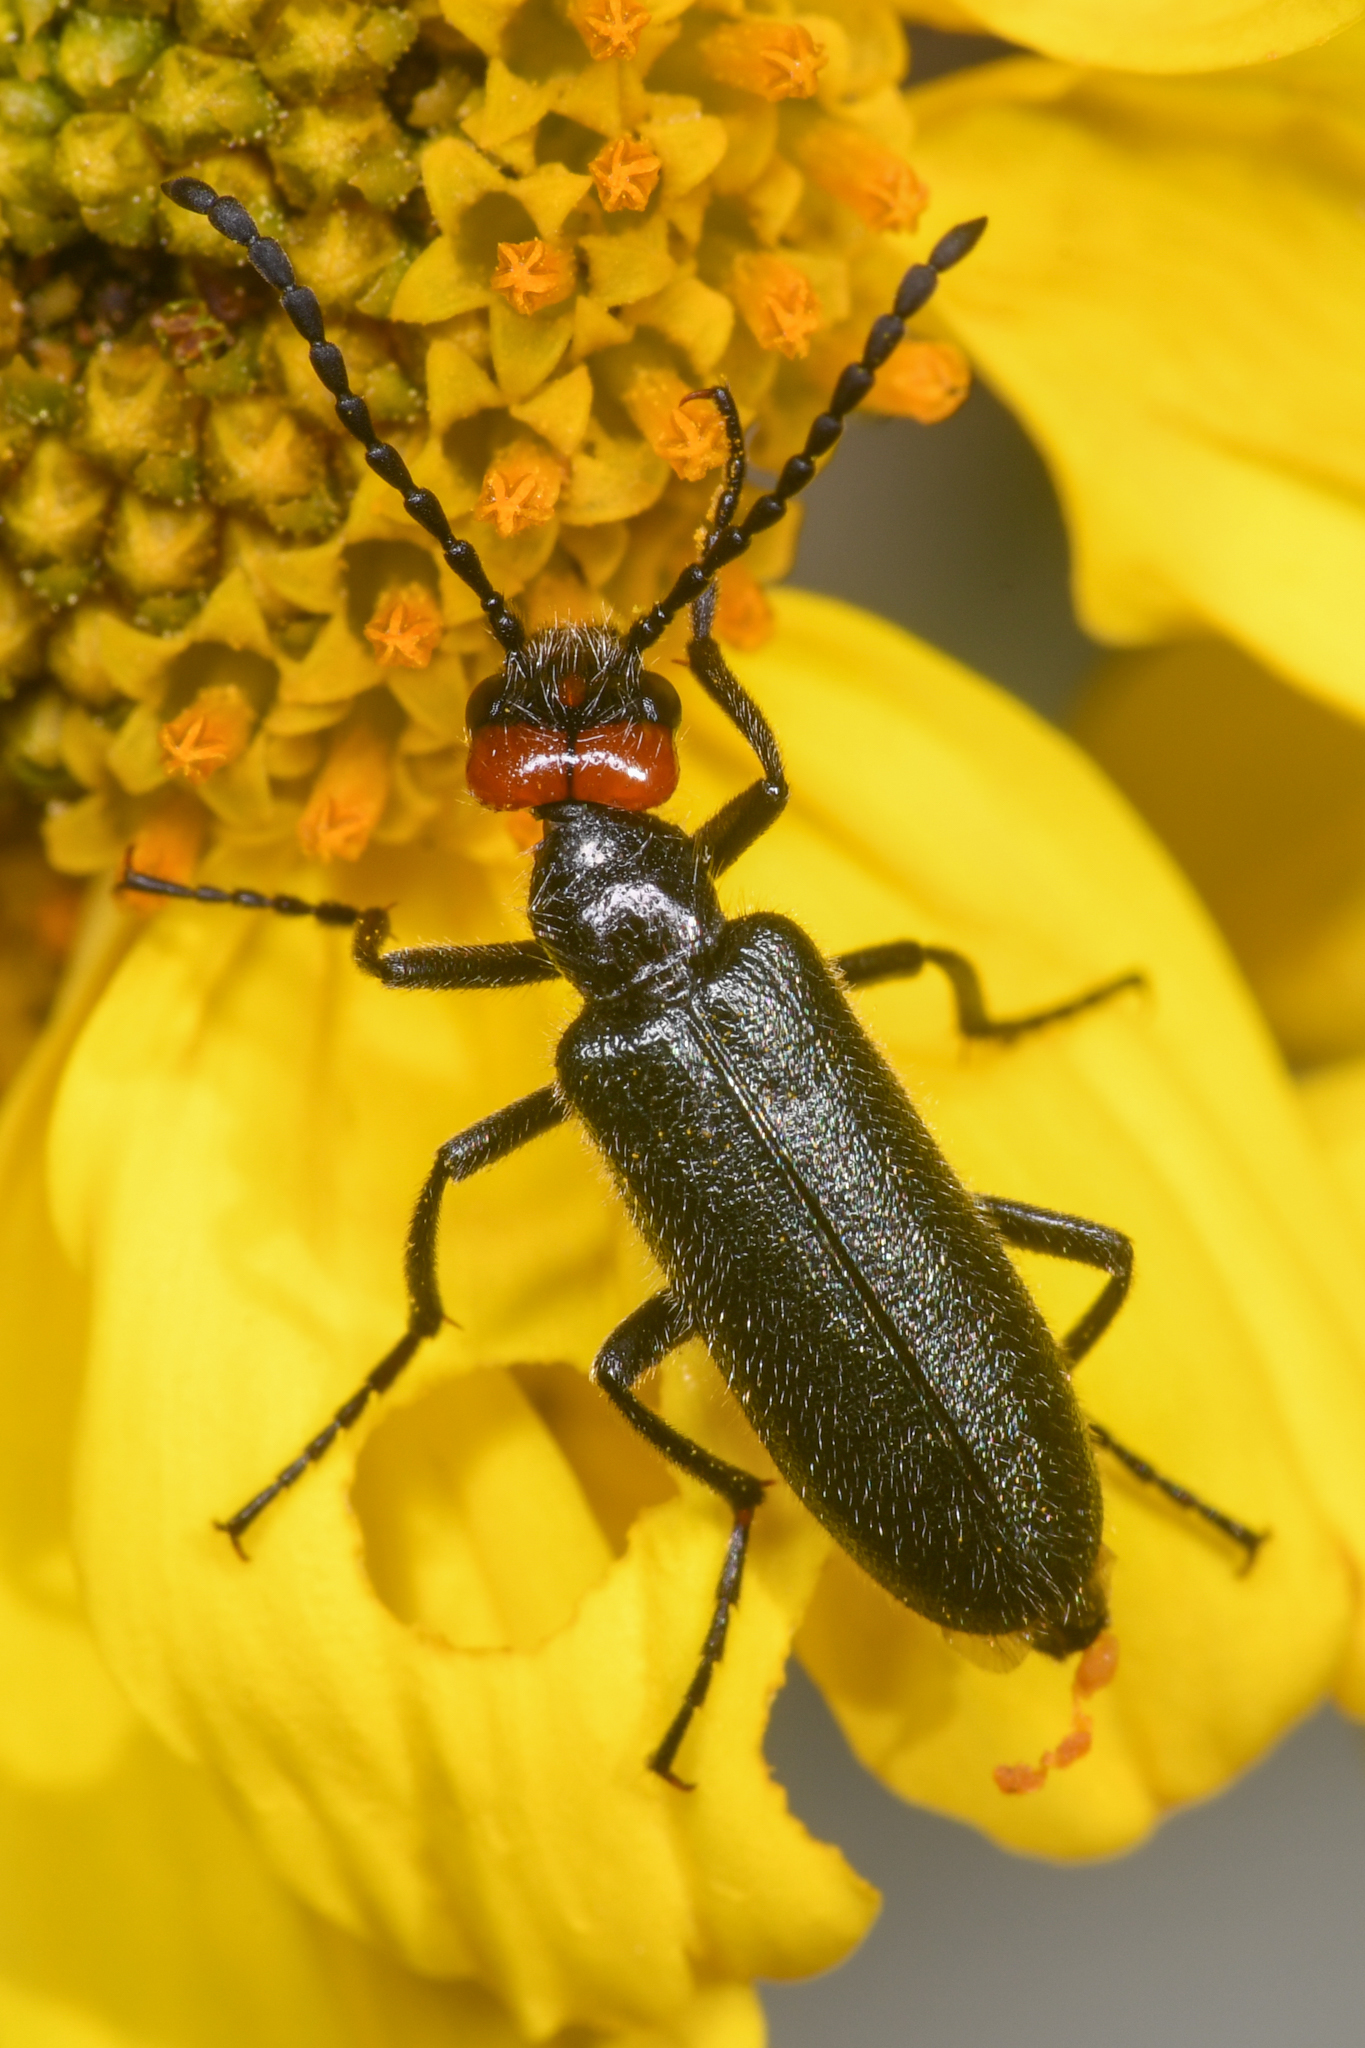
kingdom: Animalia
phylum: Arthropoda
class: Insecta
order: Coleoptera
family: Meloidae
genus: Lytta
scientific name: Lytta auriculata
